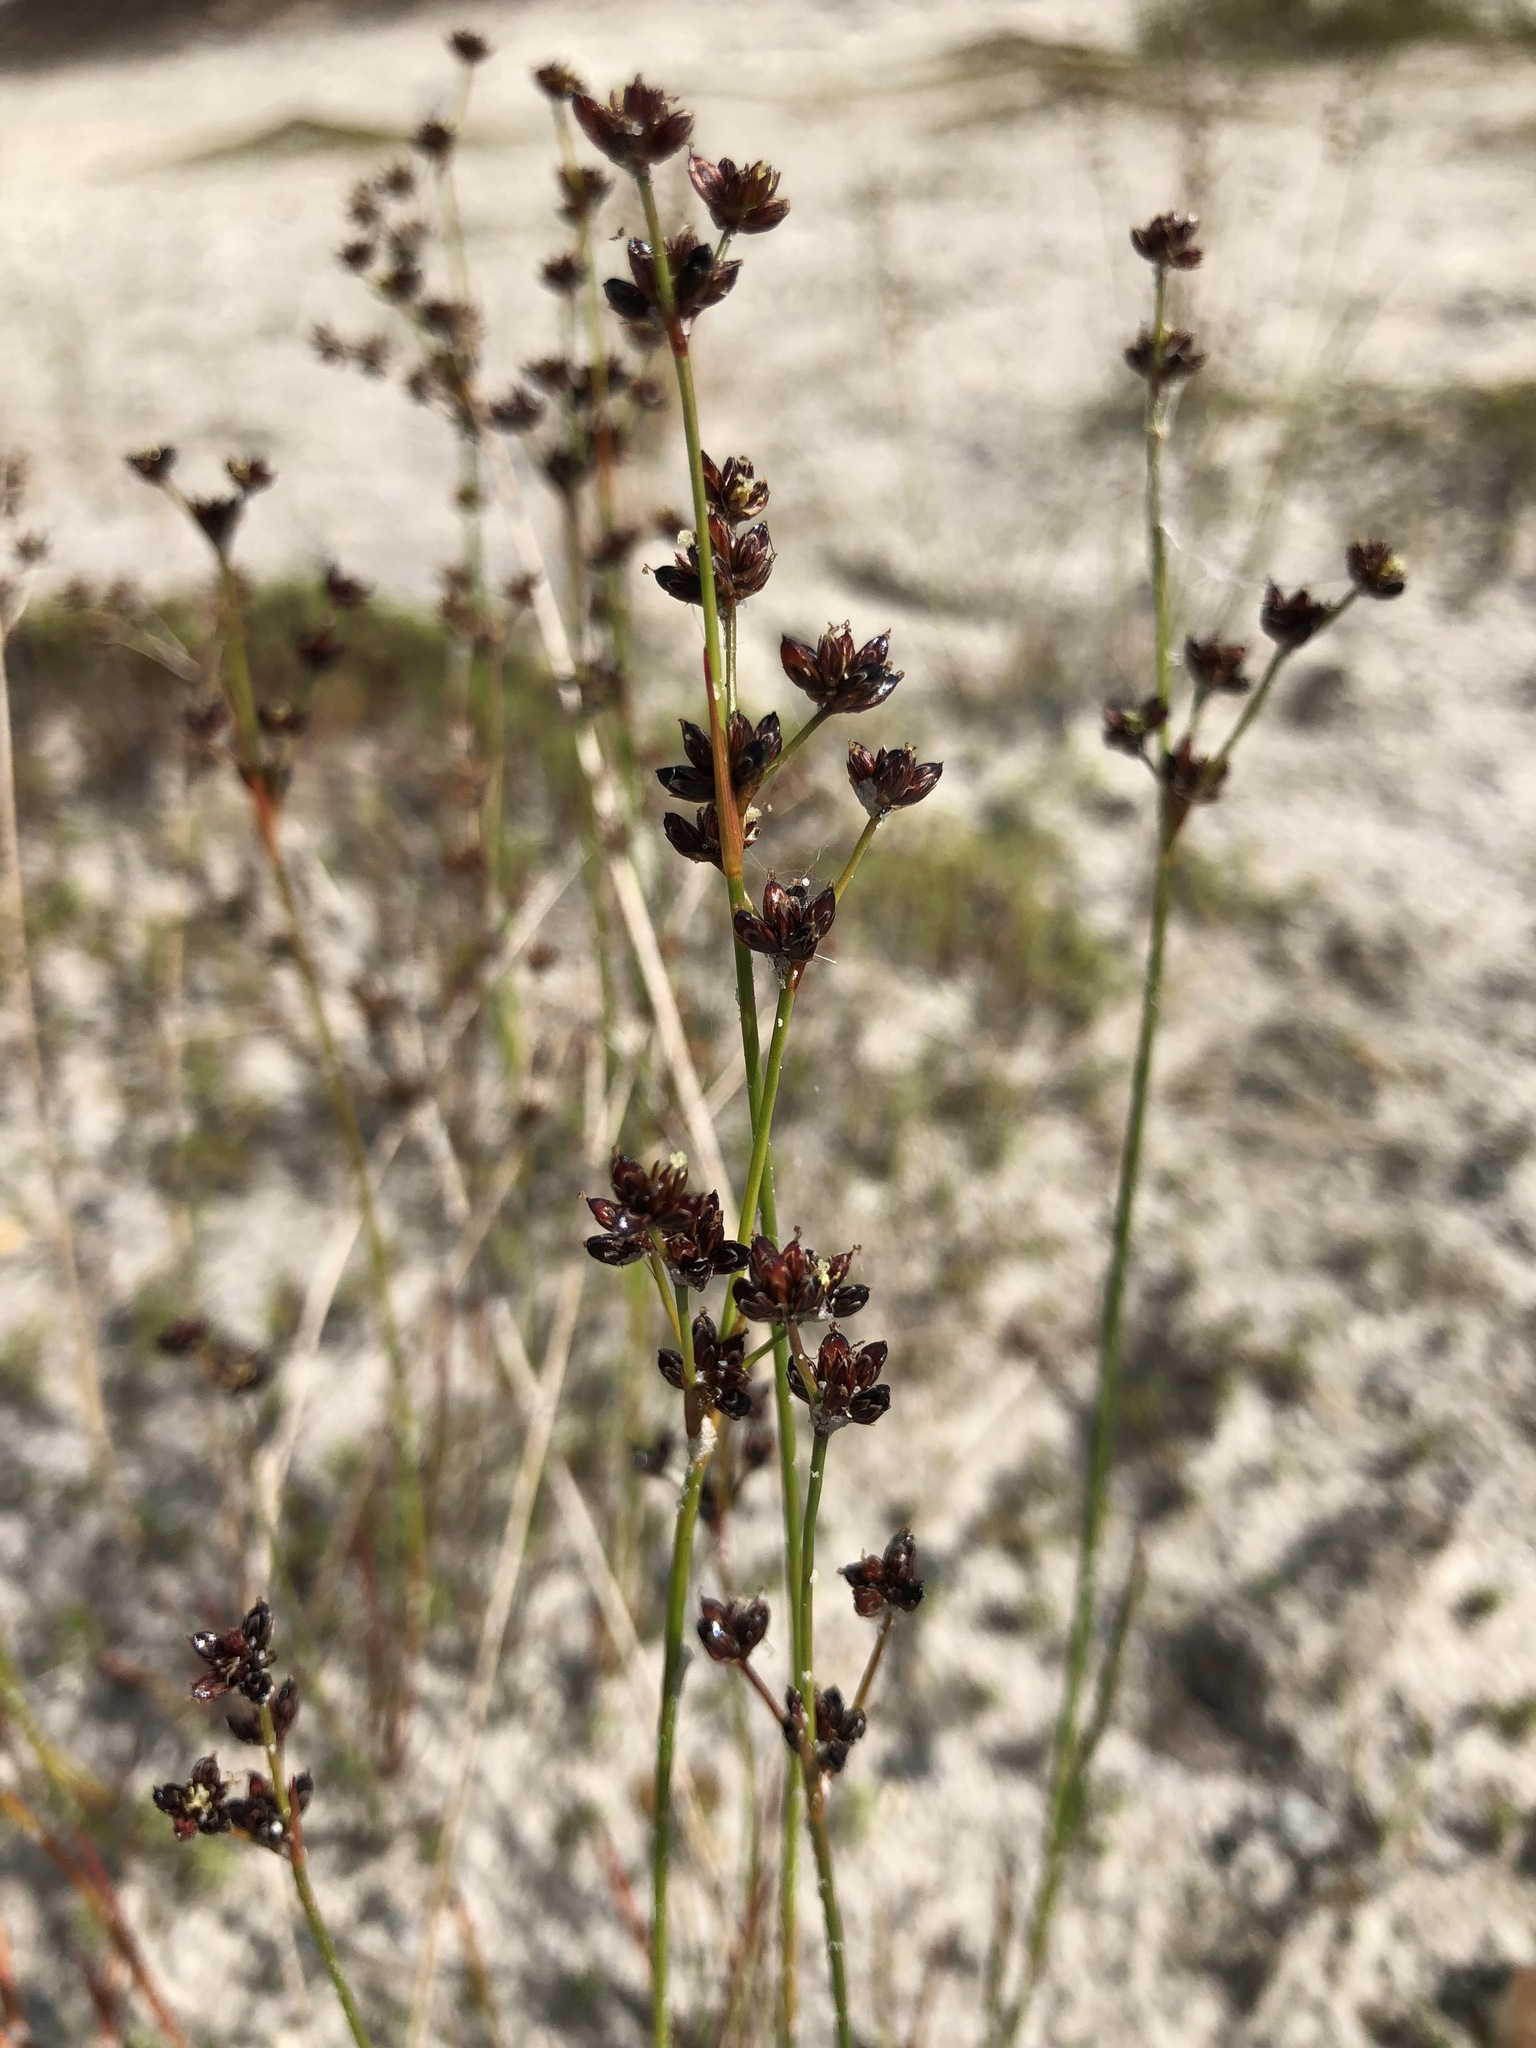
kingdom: Plantae
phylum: Tracheophyta
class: Liliopsida
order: Poales
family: Juncaceae
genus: Juncus
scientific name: Juncus alpinoarticulatus
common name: Alpine rush
